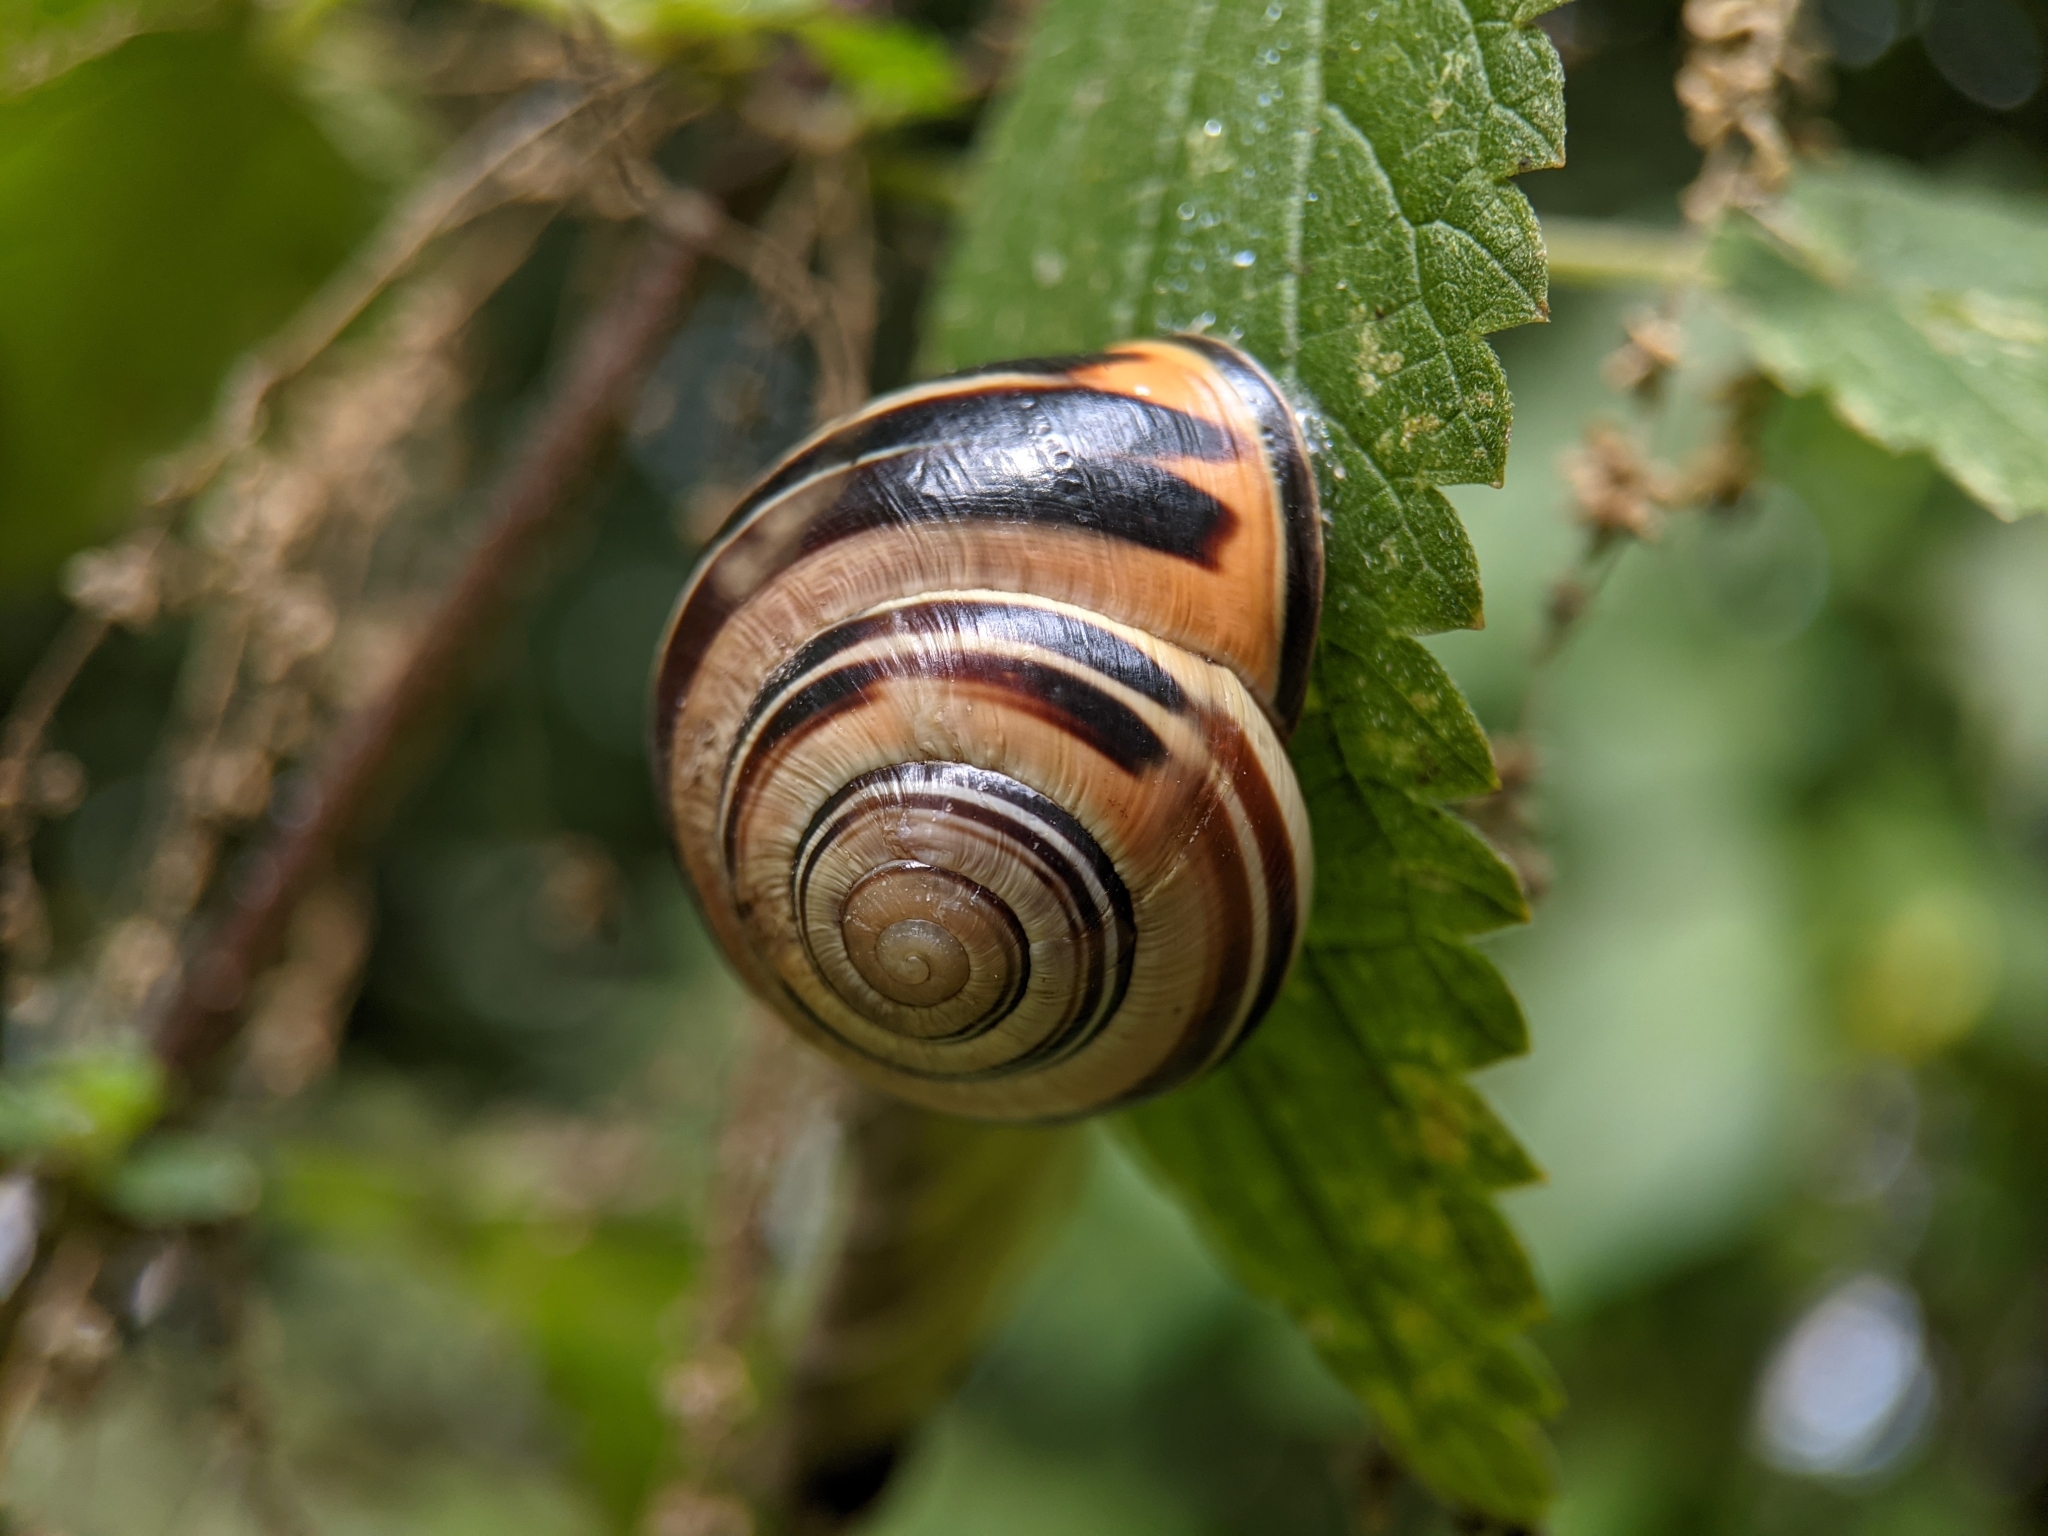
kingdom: Animalia
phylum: Mollusca
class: Gastropoda
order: Stylommatophora
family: Helicidae
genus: Cepaea
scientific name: Cepaea nemoralis
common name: Grovesnail
